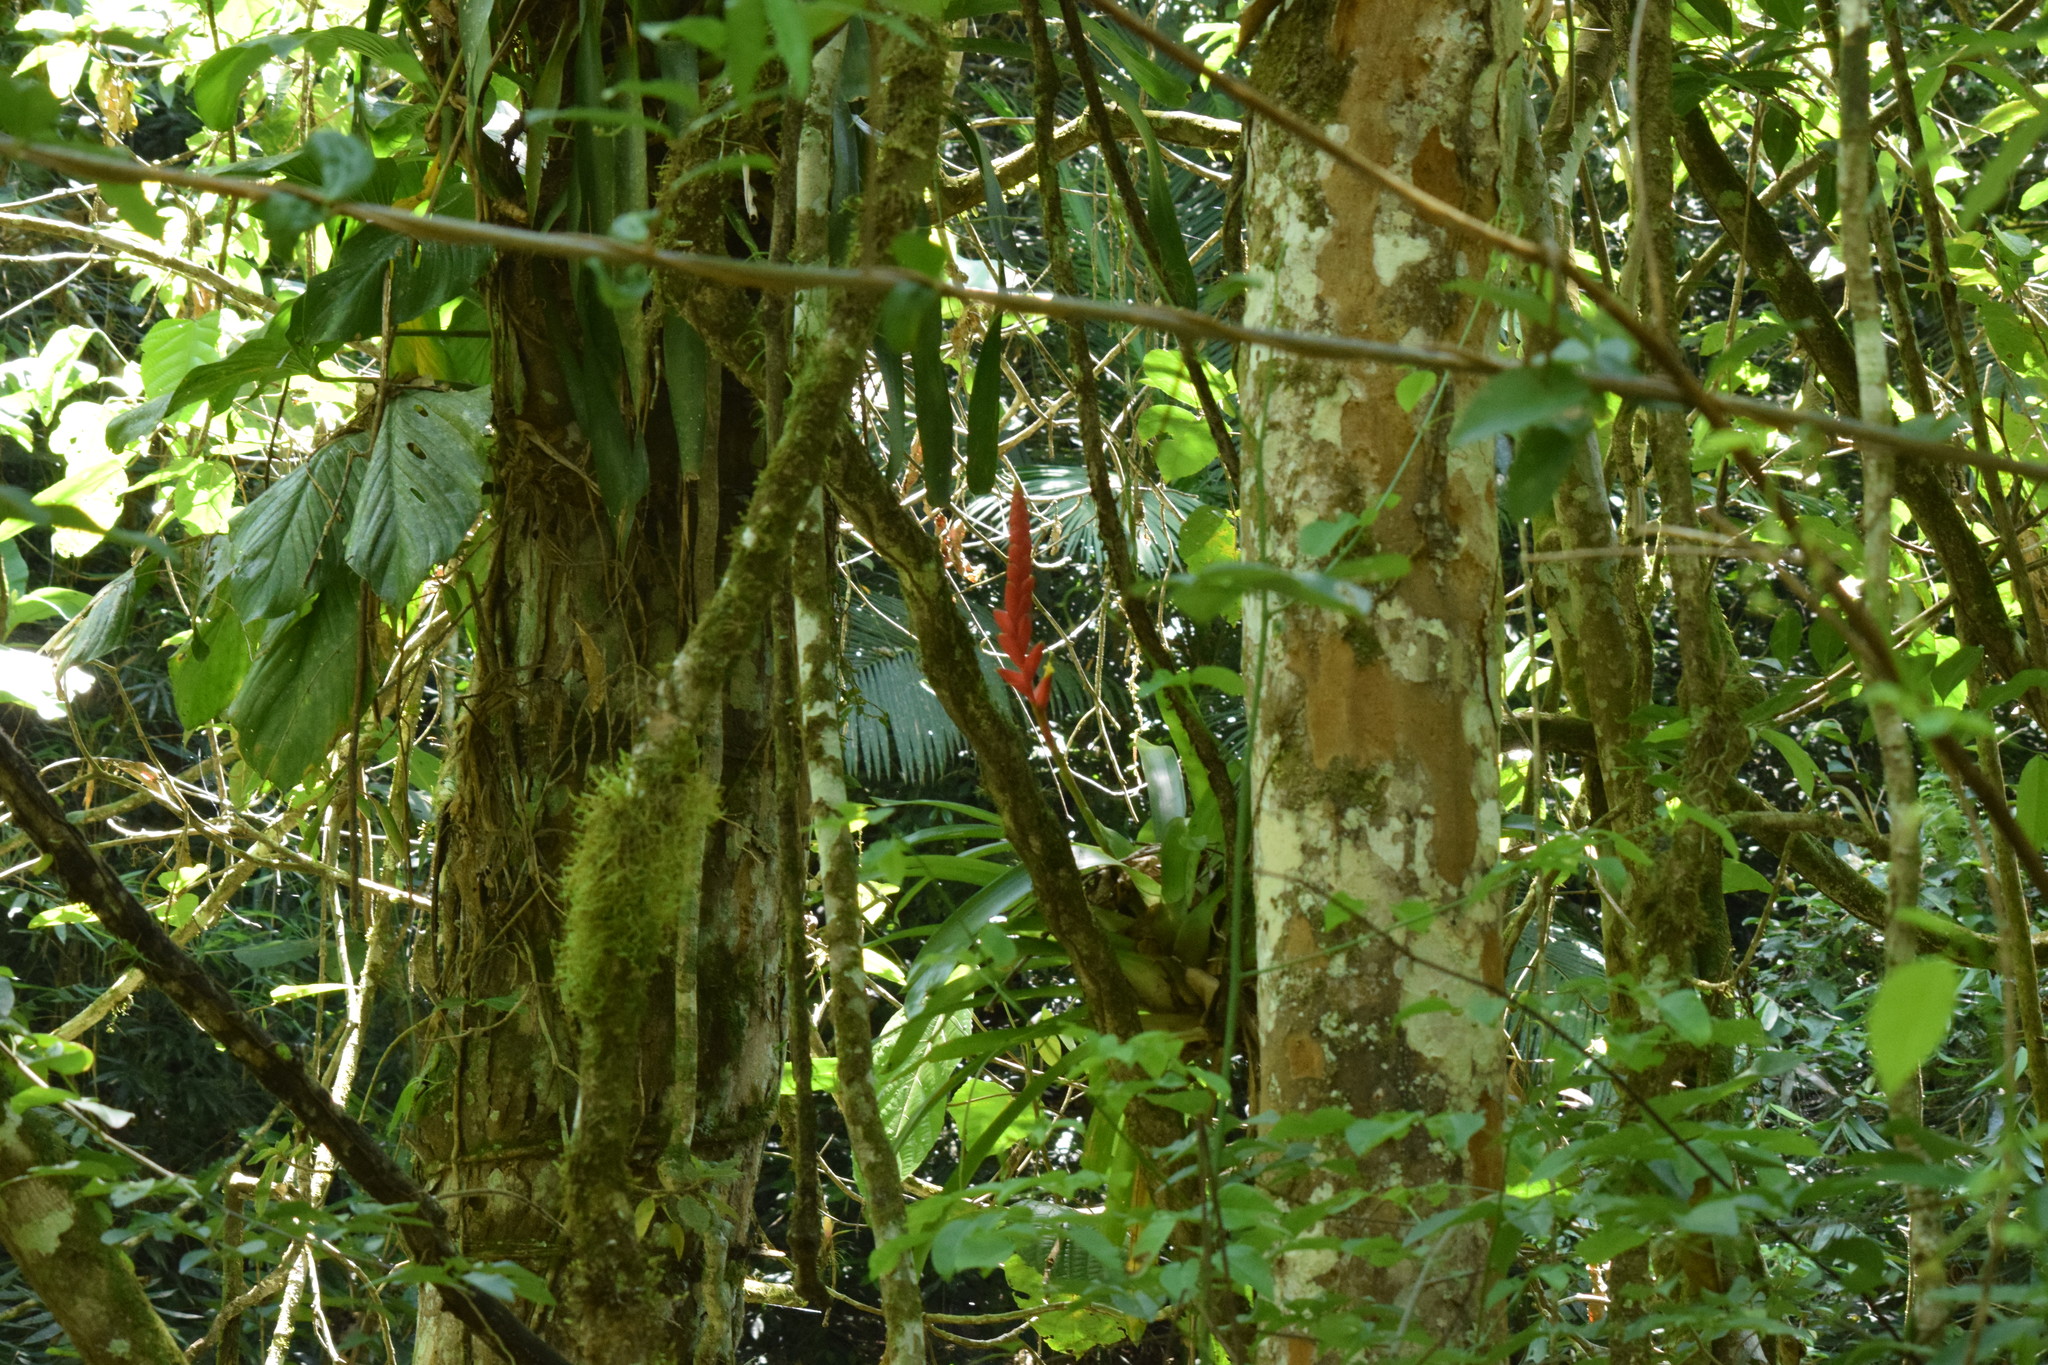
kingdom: Plantae
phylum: Tracheophyta
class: Liliopsida
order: Poales
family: Bromeliaceae
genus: Vriesea
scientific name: Vriesea ensiformis
